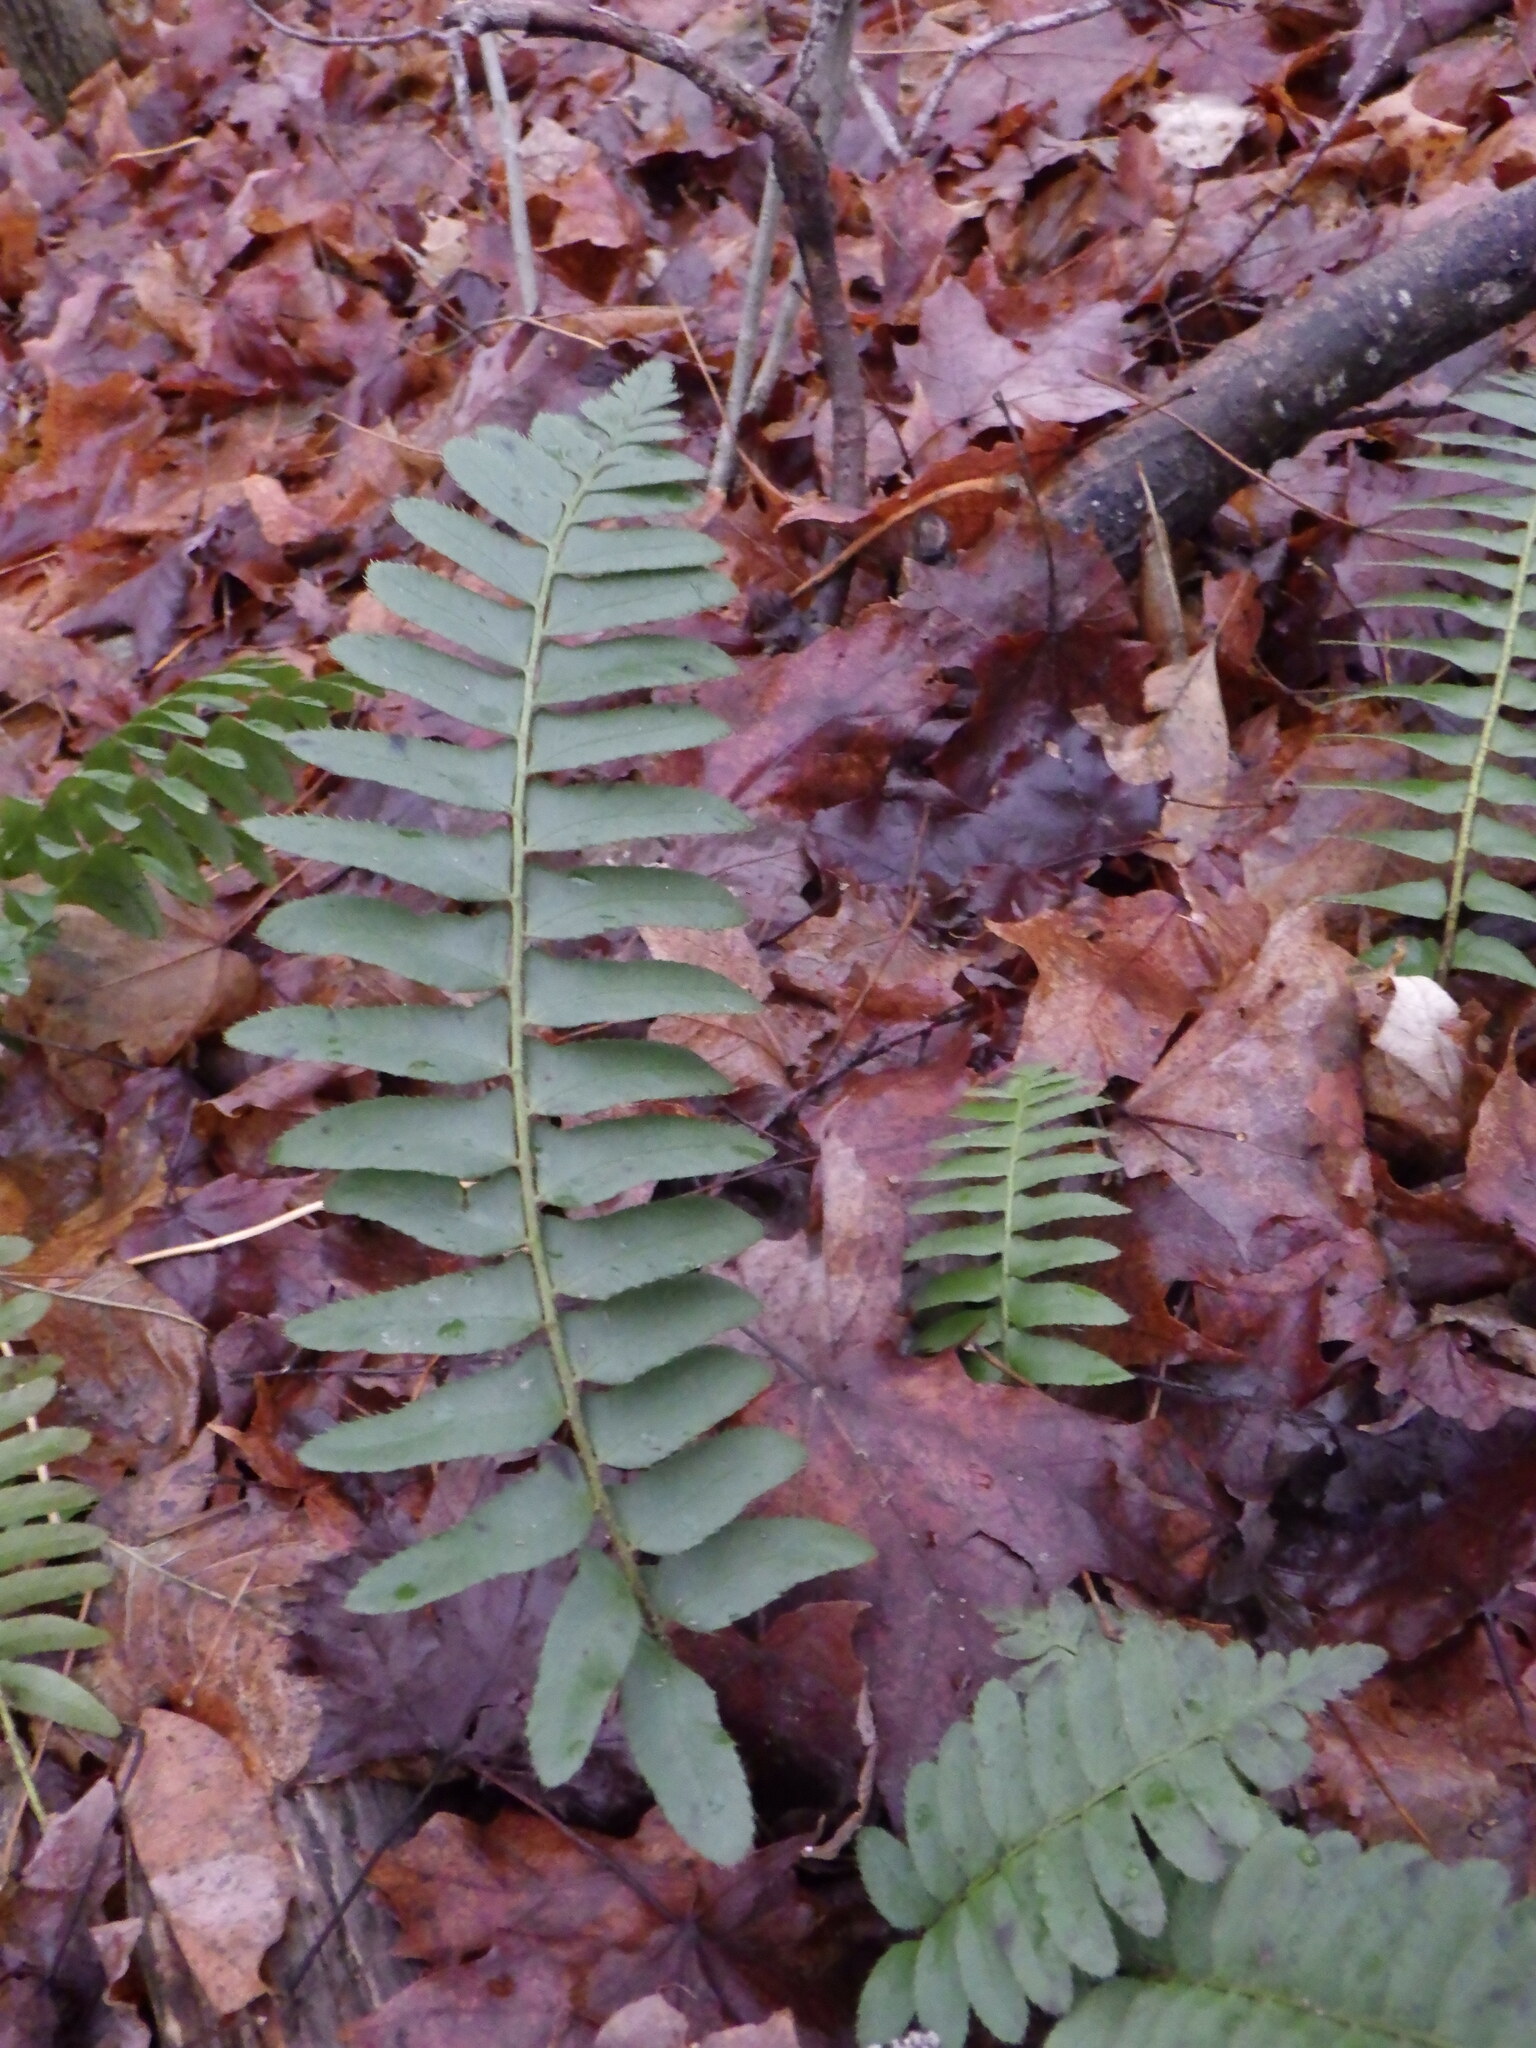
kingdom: Plantae
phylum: Tracheophyta
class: Polypodiopsida
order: Polypodiales
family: Dryopteridaceae
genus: Polystichum
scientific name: Polystichum acrostichoides
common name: Christmas fern
